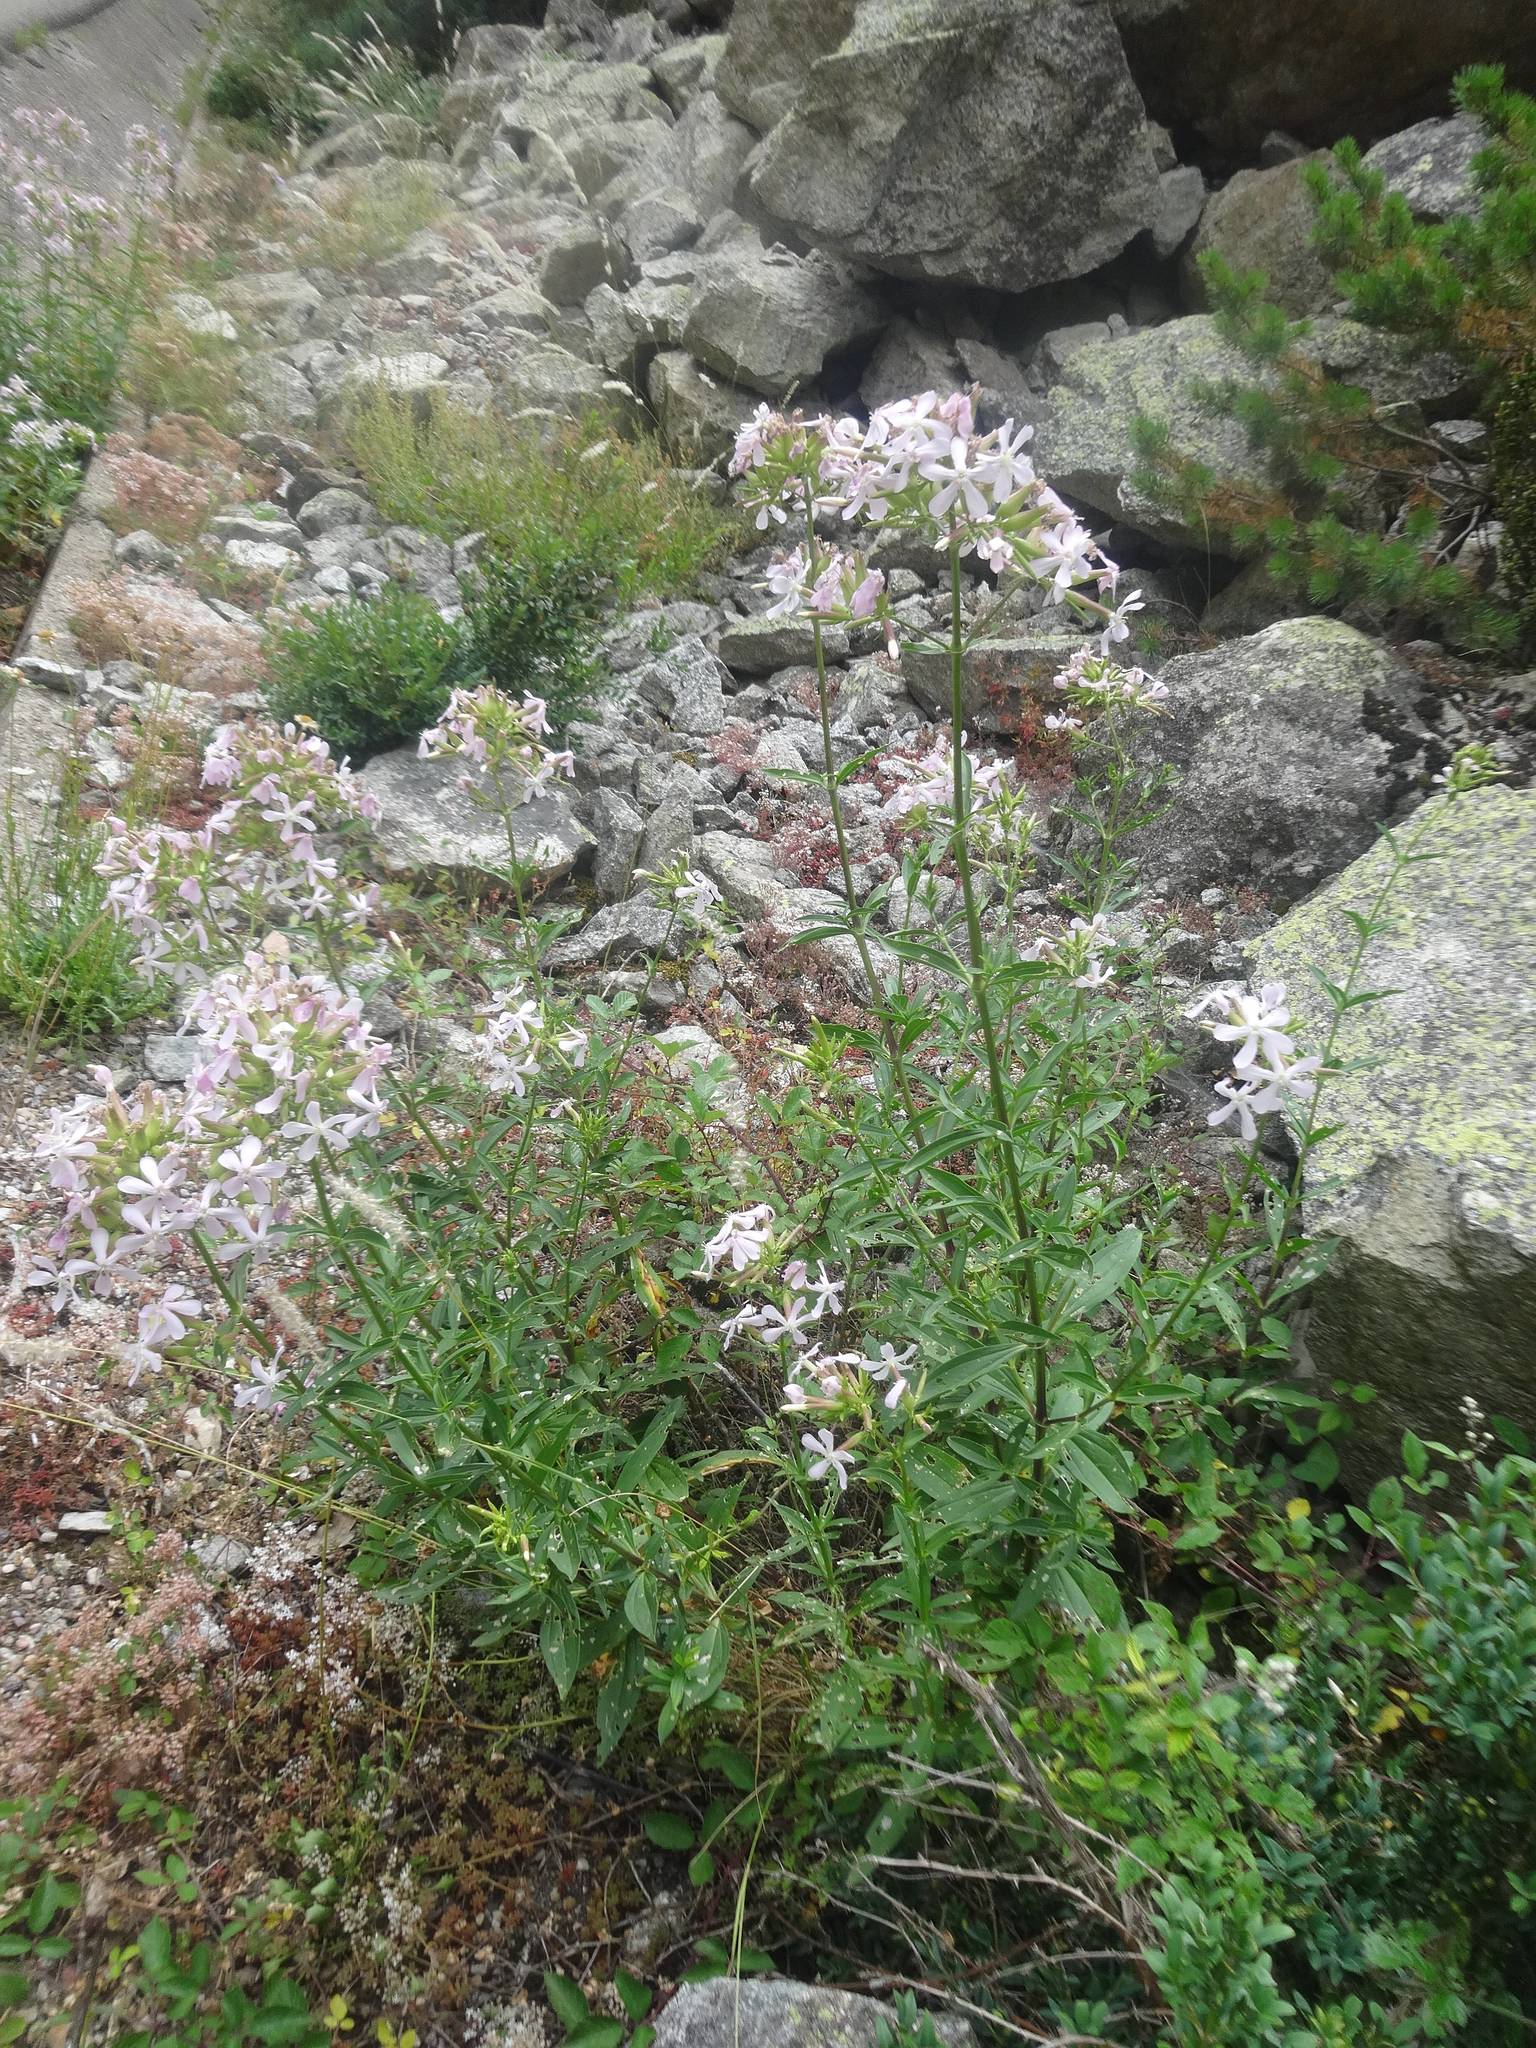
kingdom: Plantae
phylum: Tracheophyta
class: Magnoliopsida
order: Caryophyllales
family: Caryophyllaceae
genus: Saponaria
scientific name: Saponaria officinalis
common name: Soapwort
